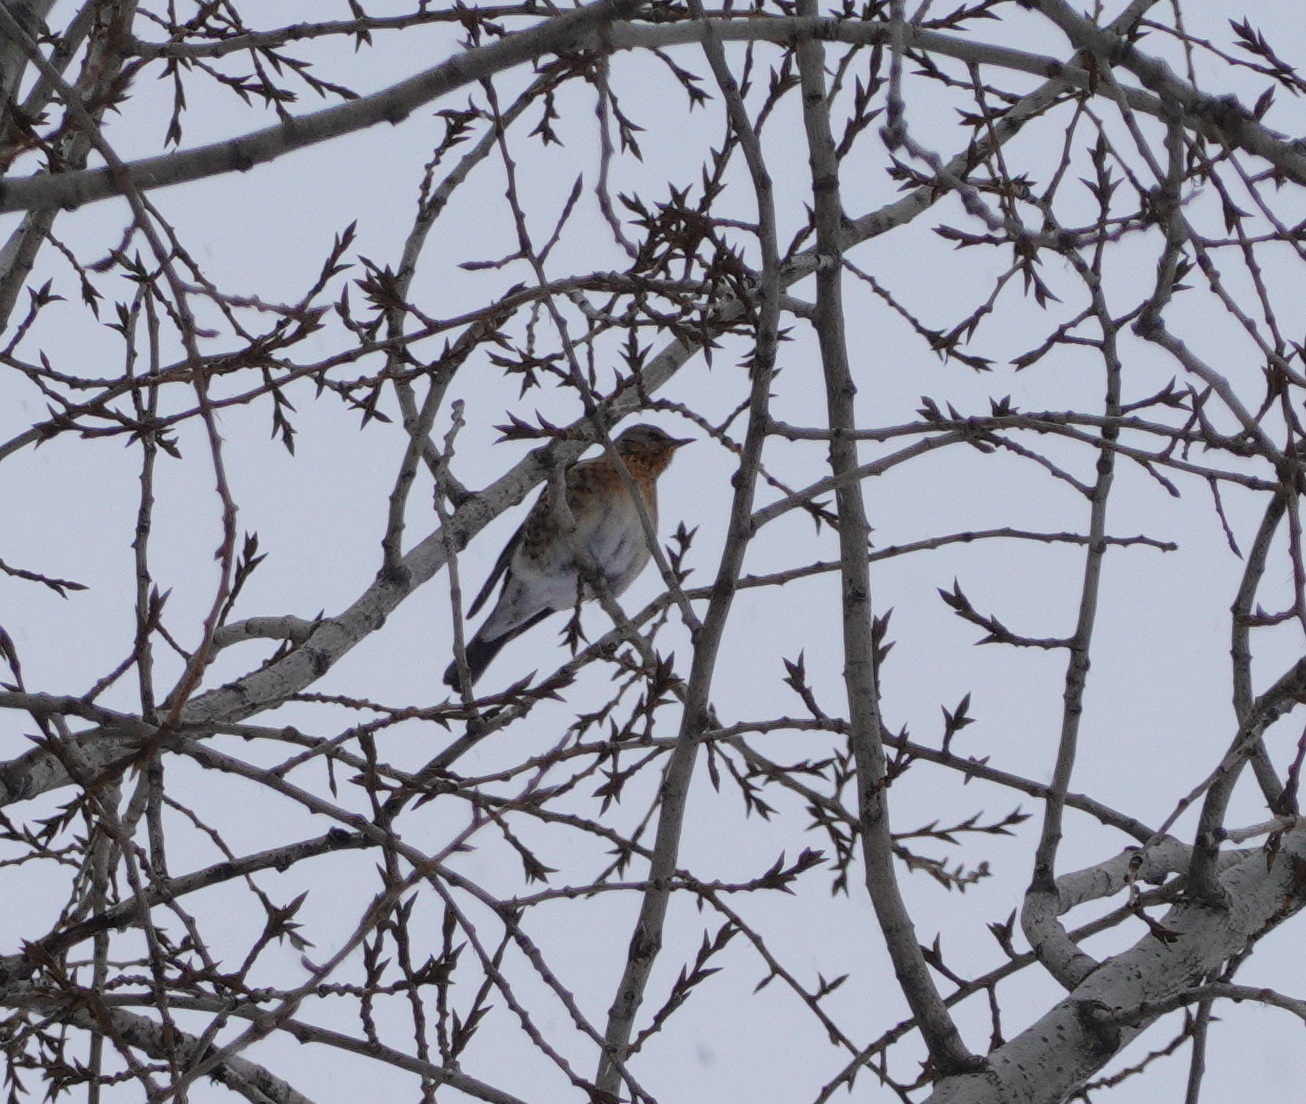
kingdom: Animalia
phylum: Chordata
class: Aves
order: Passeriformes
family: Turdidae
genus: Turdus
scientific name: Turdus pilaris
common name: Fieldfare
